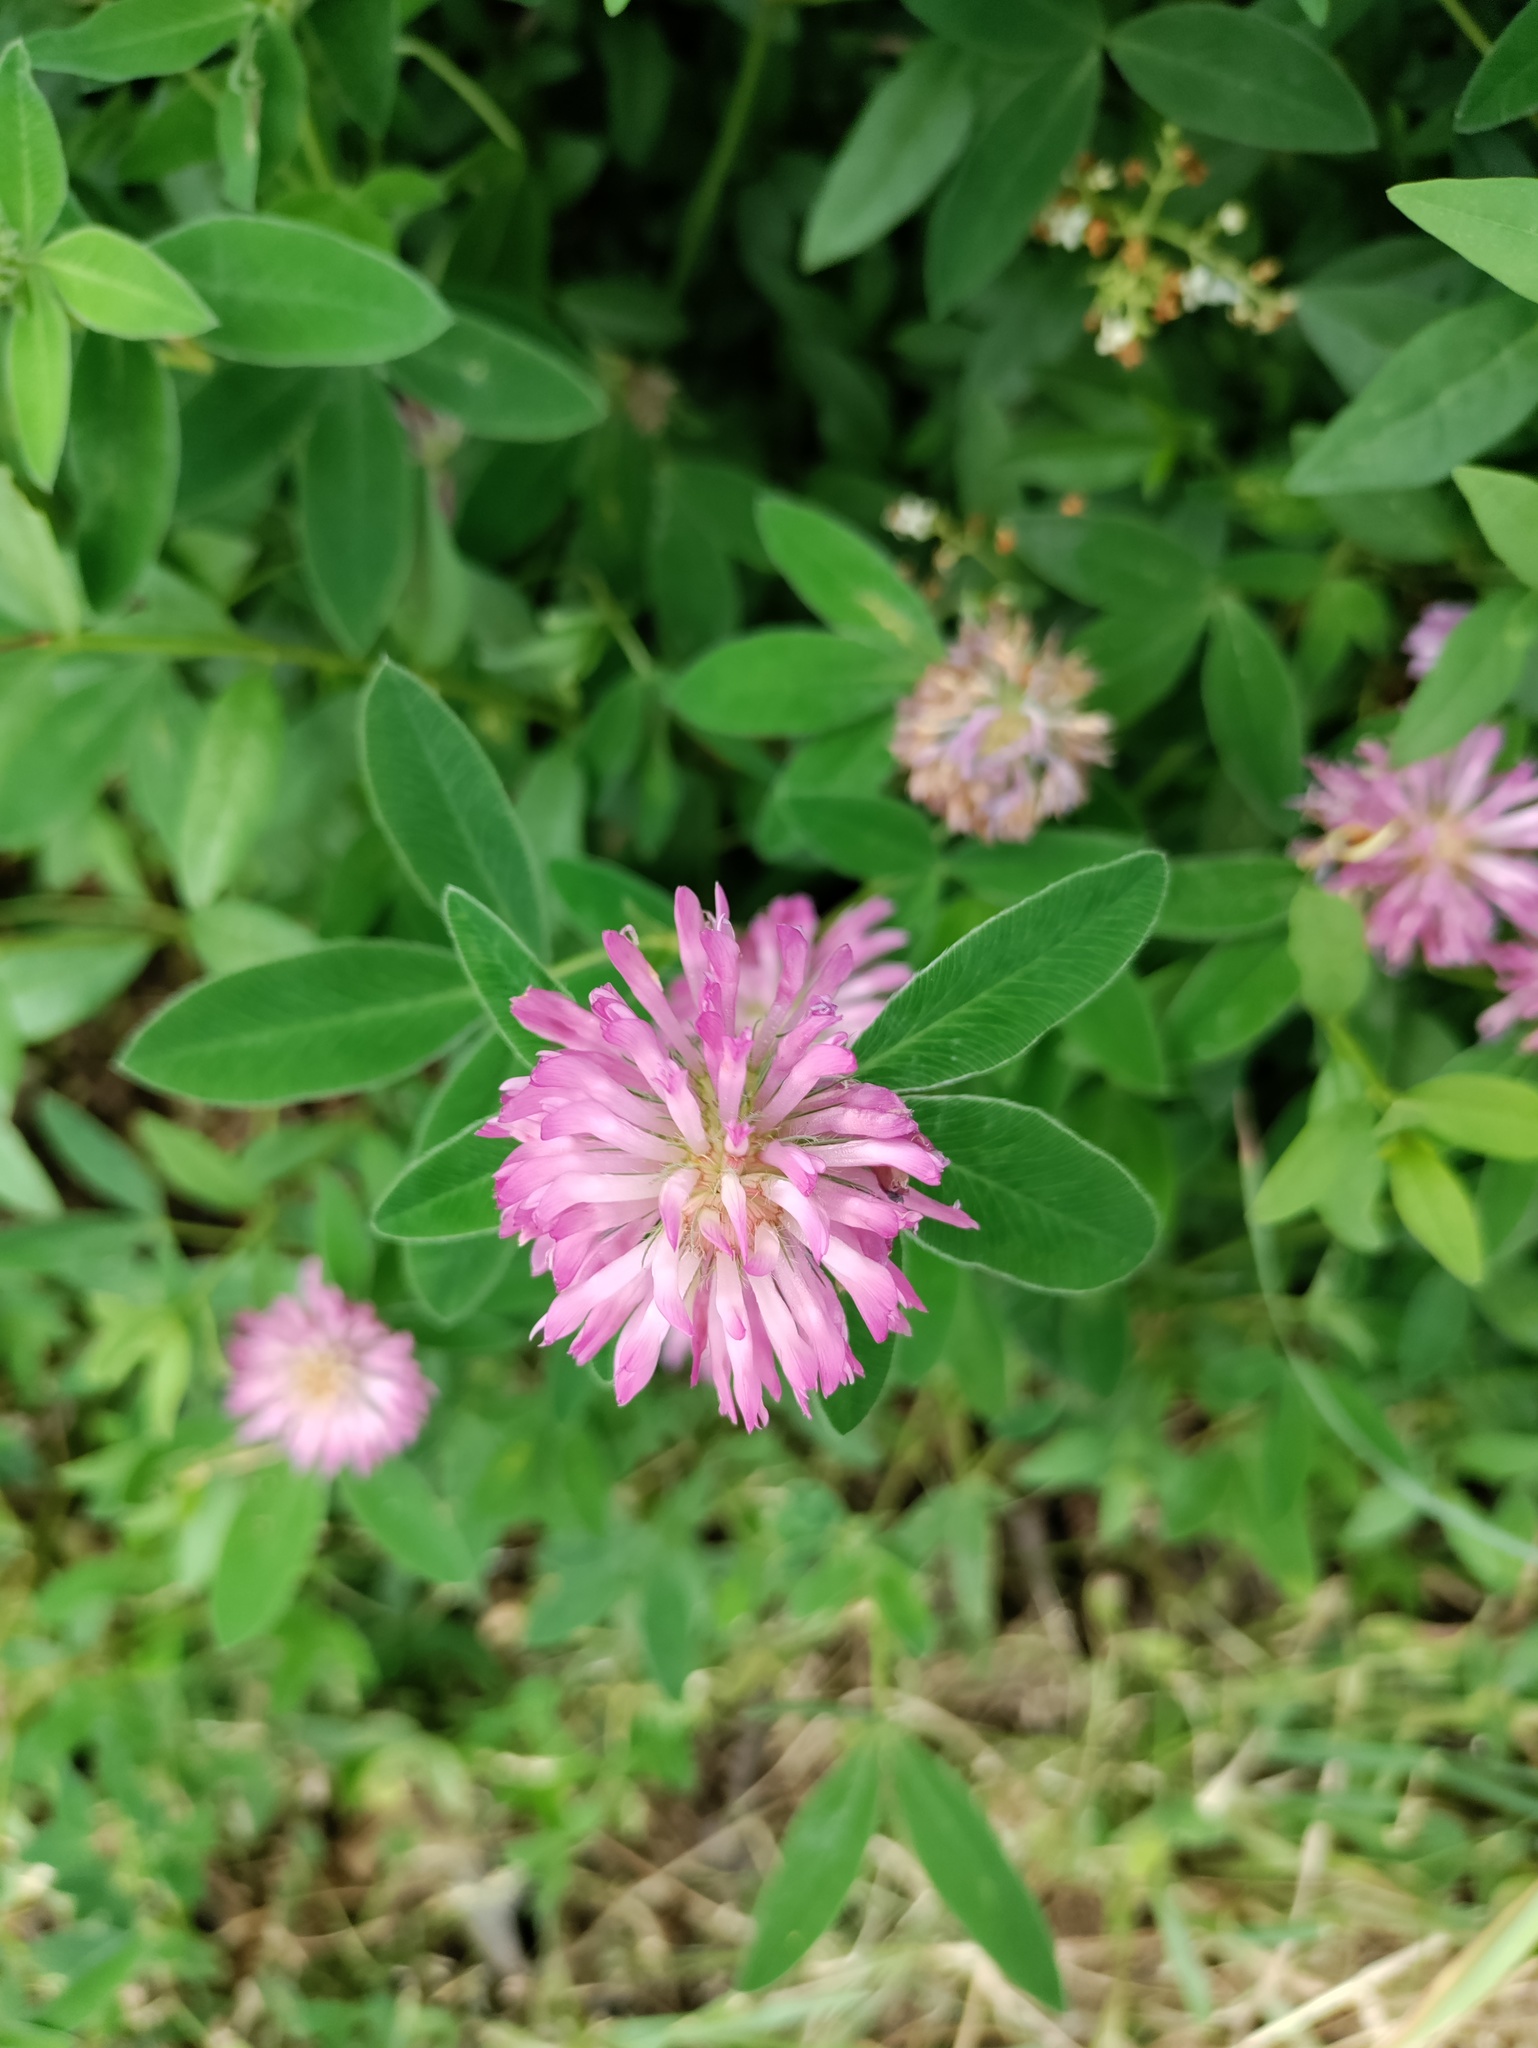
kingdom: Plantae
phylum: Tracheophyta
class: Magnoliopsida
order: Fabales
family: Fabaceae
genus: Trifolium
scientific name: Trifolium medium
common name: Zigzag clover
